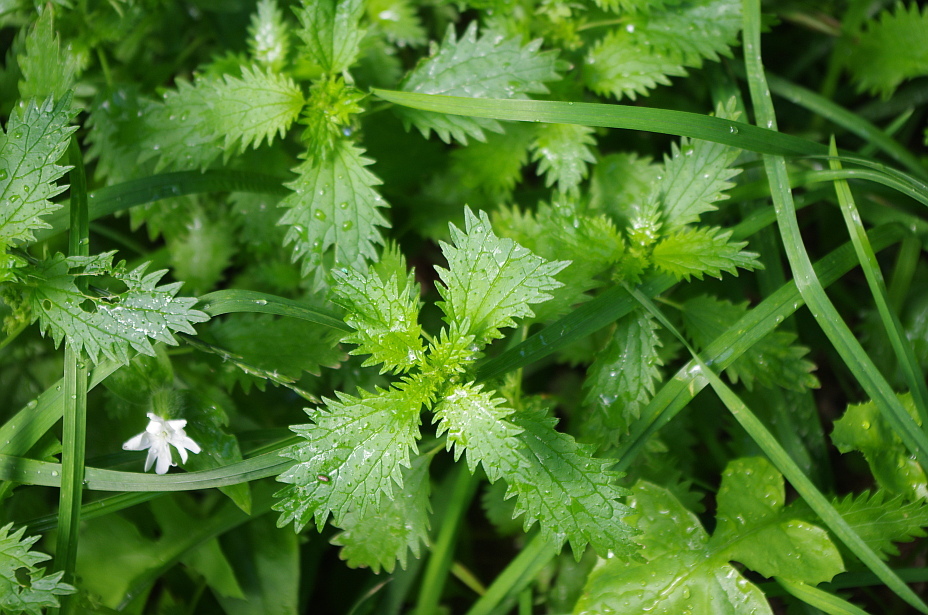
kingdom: Plantae
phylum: Tracheophyta
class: Magnoliopsida
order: Rosales
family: Urticaceae
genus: Urtica
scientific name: Urtica urens
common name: Dwarf nettle
